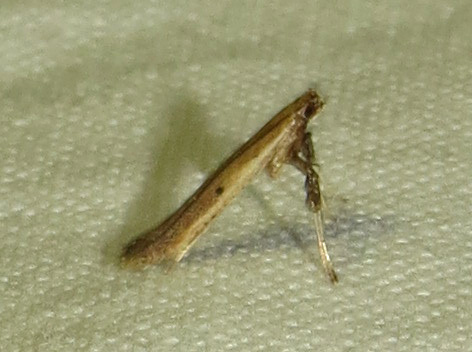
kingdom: Animalia
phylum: Arthropoda
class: Insecta
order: Lepidoptera
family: Gracillariidae
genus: Caloptilia
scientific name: Caloptilia violacella
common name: Tick-trefoil caloptilia moth
